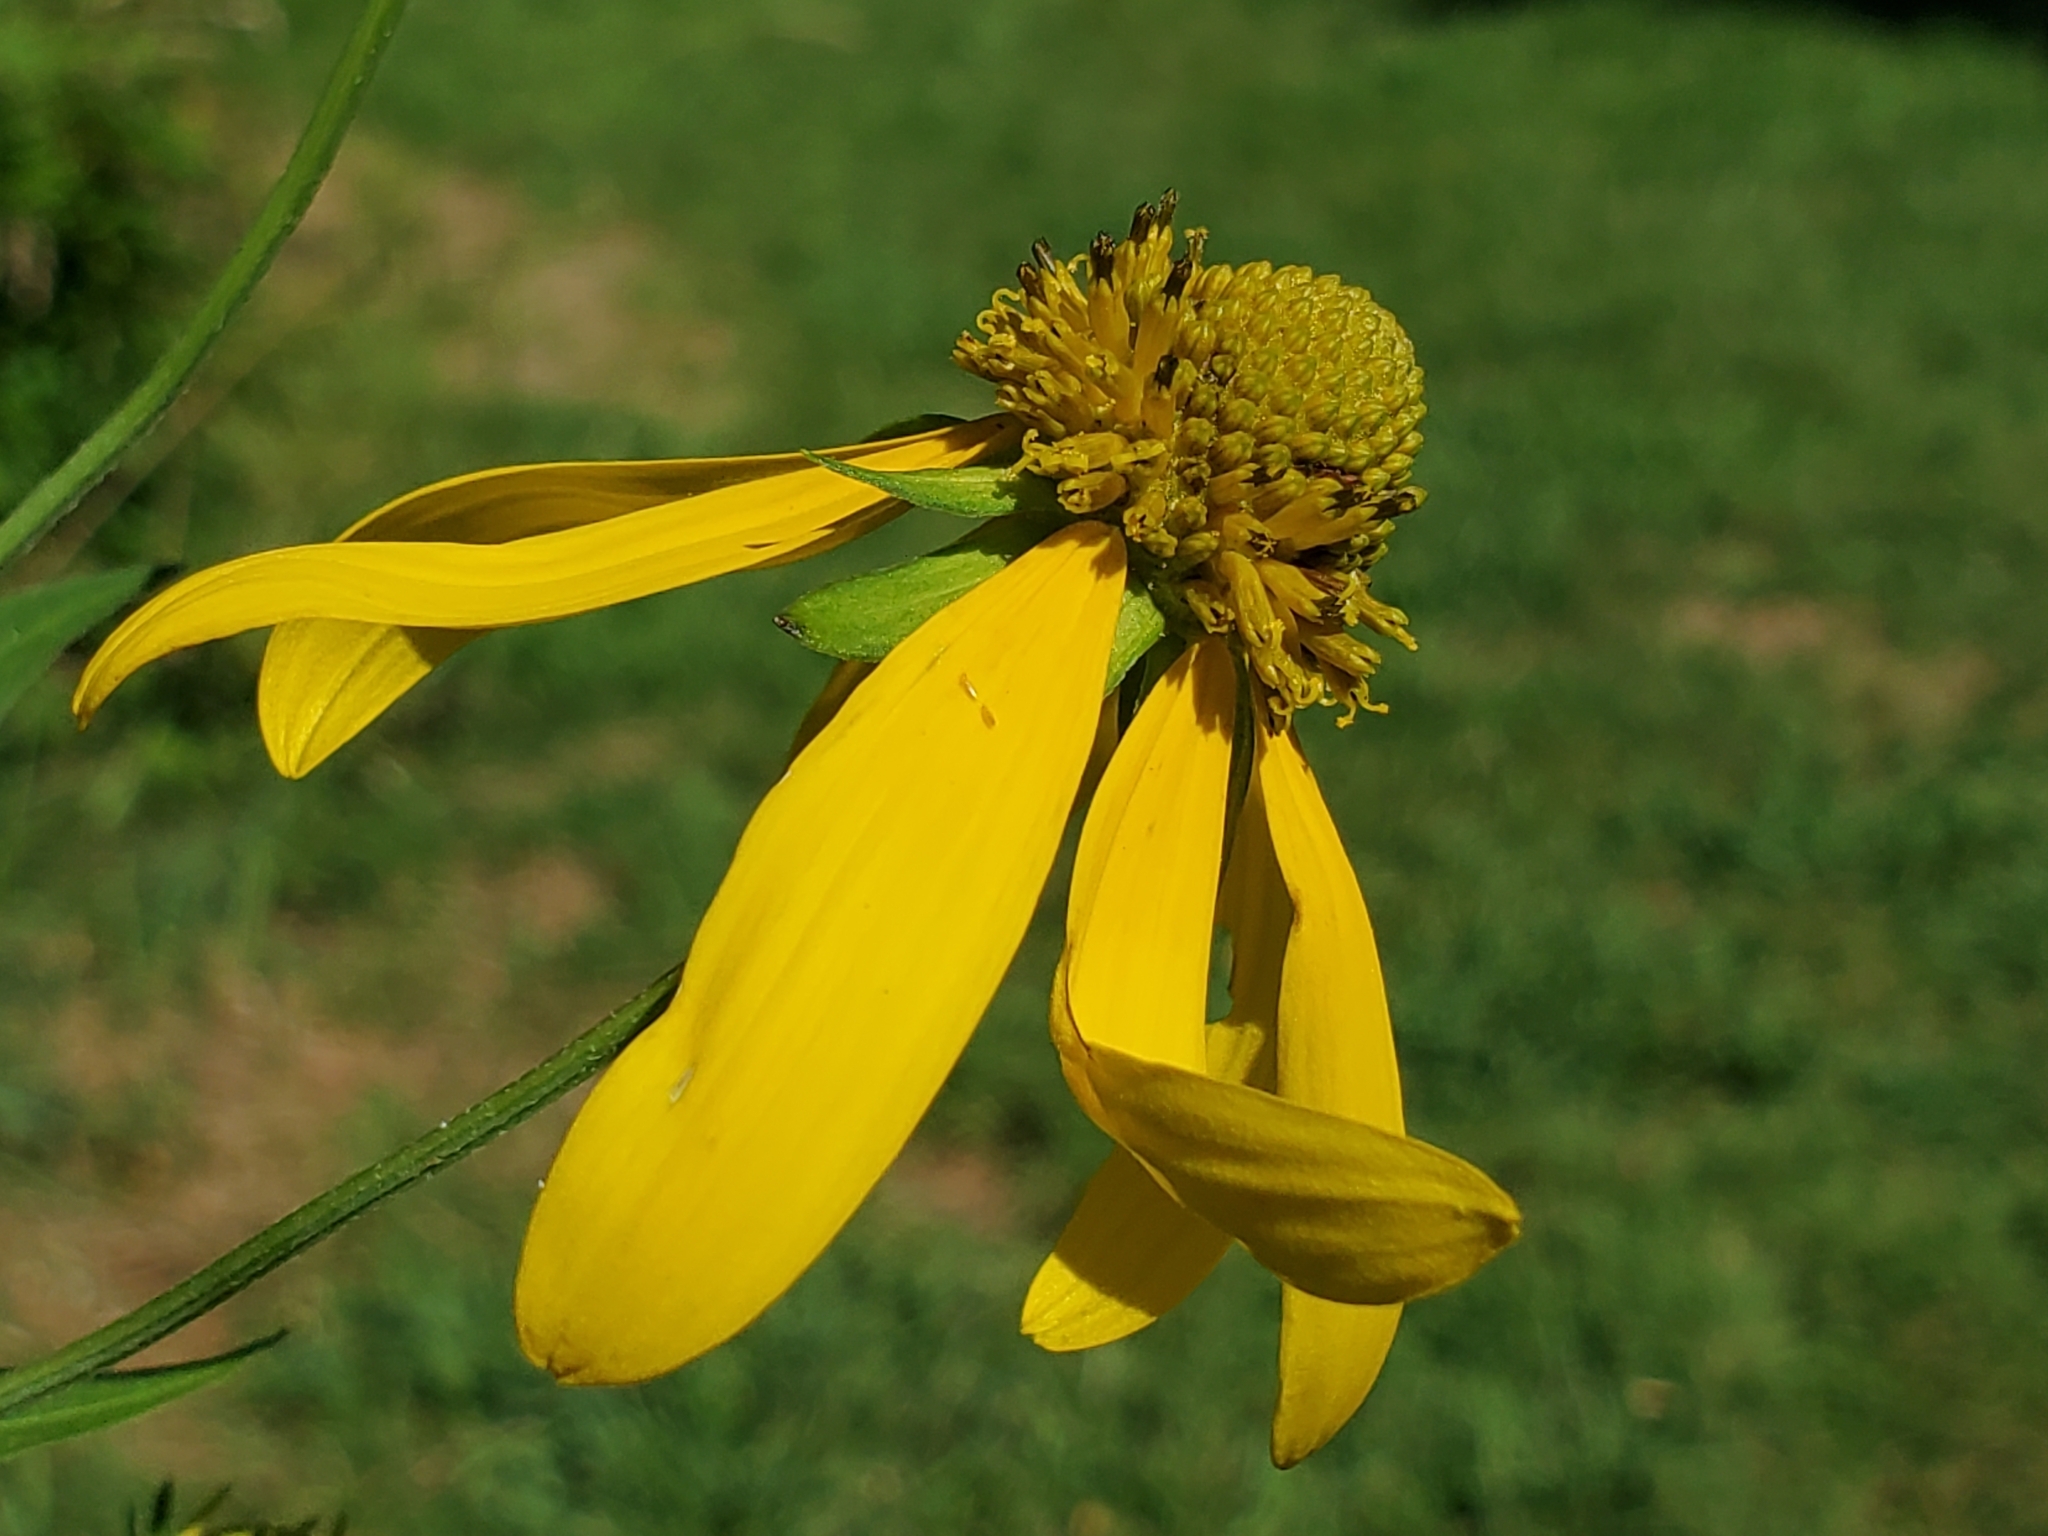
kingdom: Plantae
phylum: Tracheophyta
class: Magnoliopsida
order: Asterales
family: Asteraceae
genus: Rudbeckia
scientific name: Rudbeckia laciniata
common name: Coneflower
